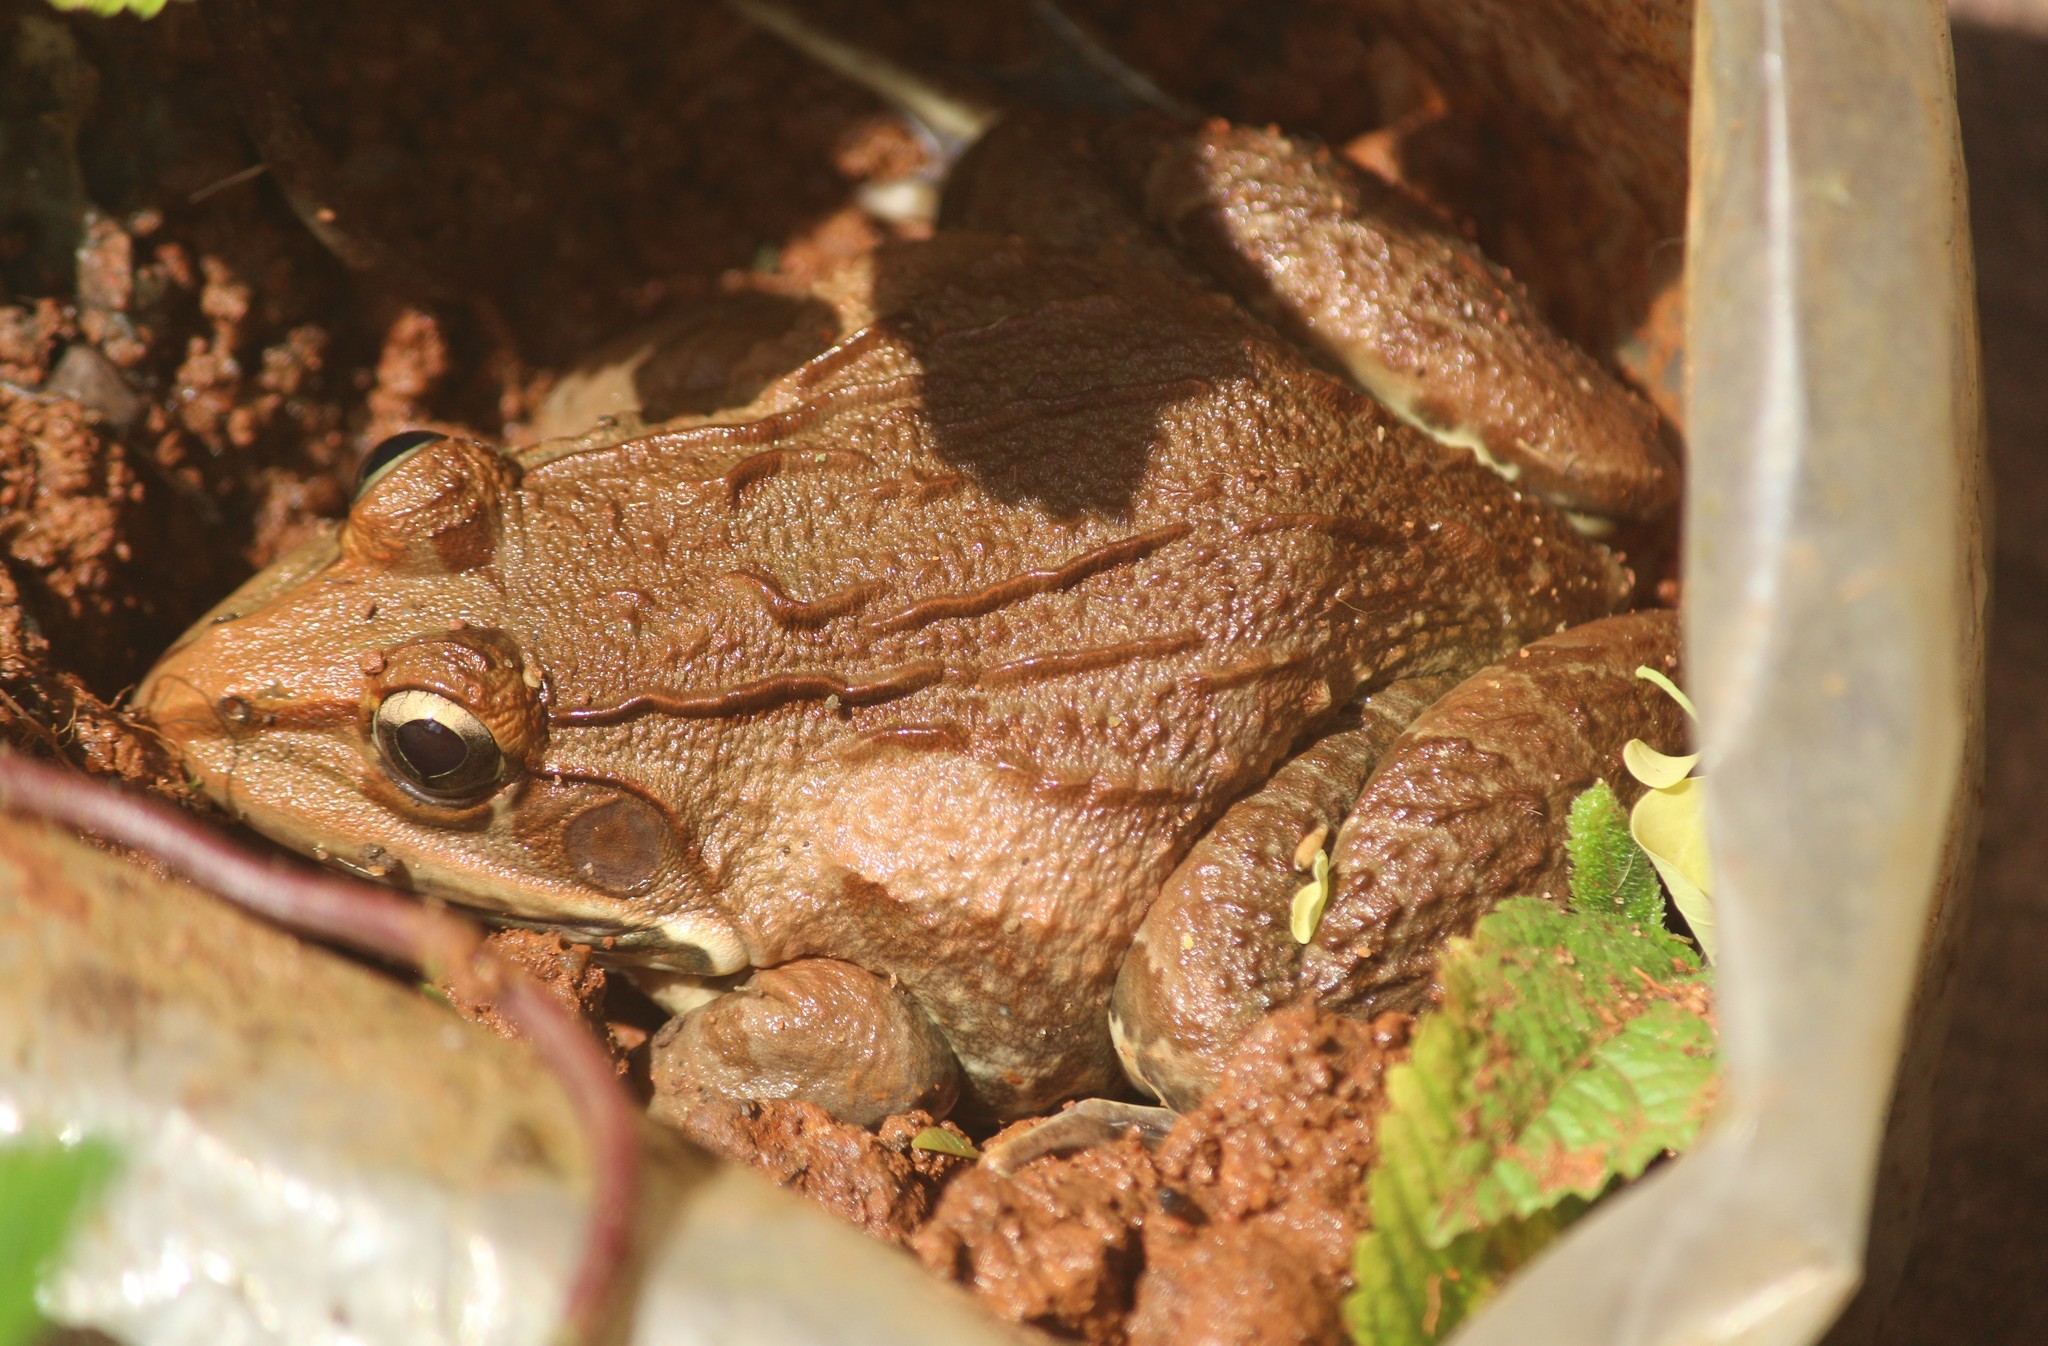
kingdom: Animalia
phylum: Chordata
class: Amphibia
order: Anura
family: Dicroglossidae
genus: Hoplobatrachus
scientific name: Hoplobatrachus tigerinus
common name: Indian bullfrog
